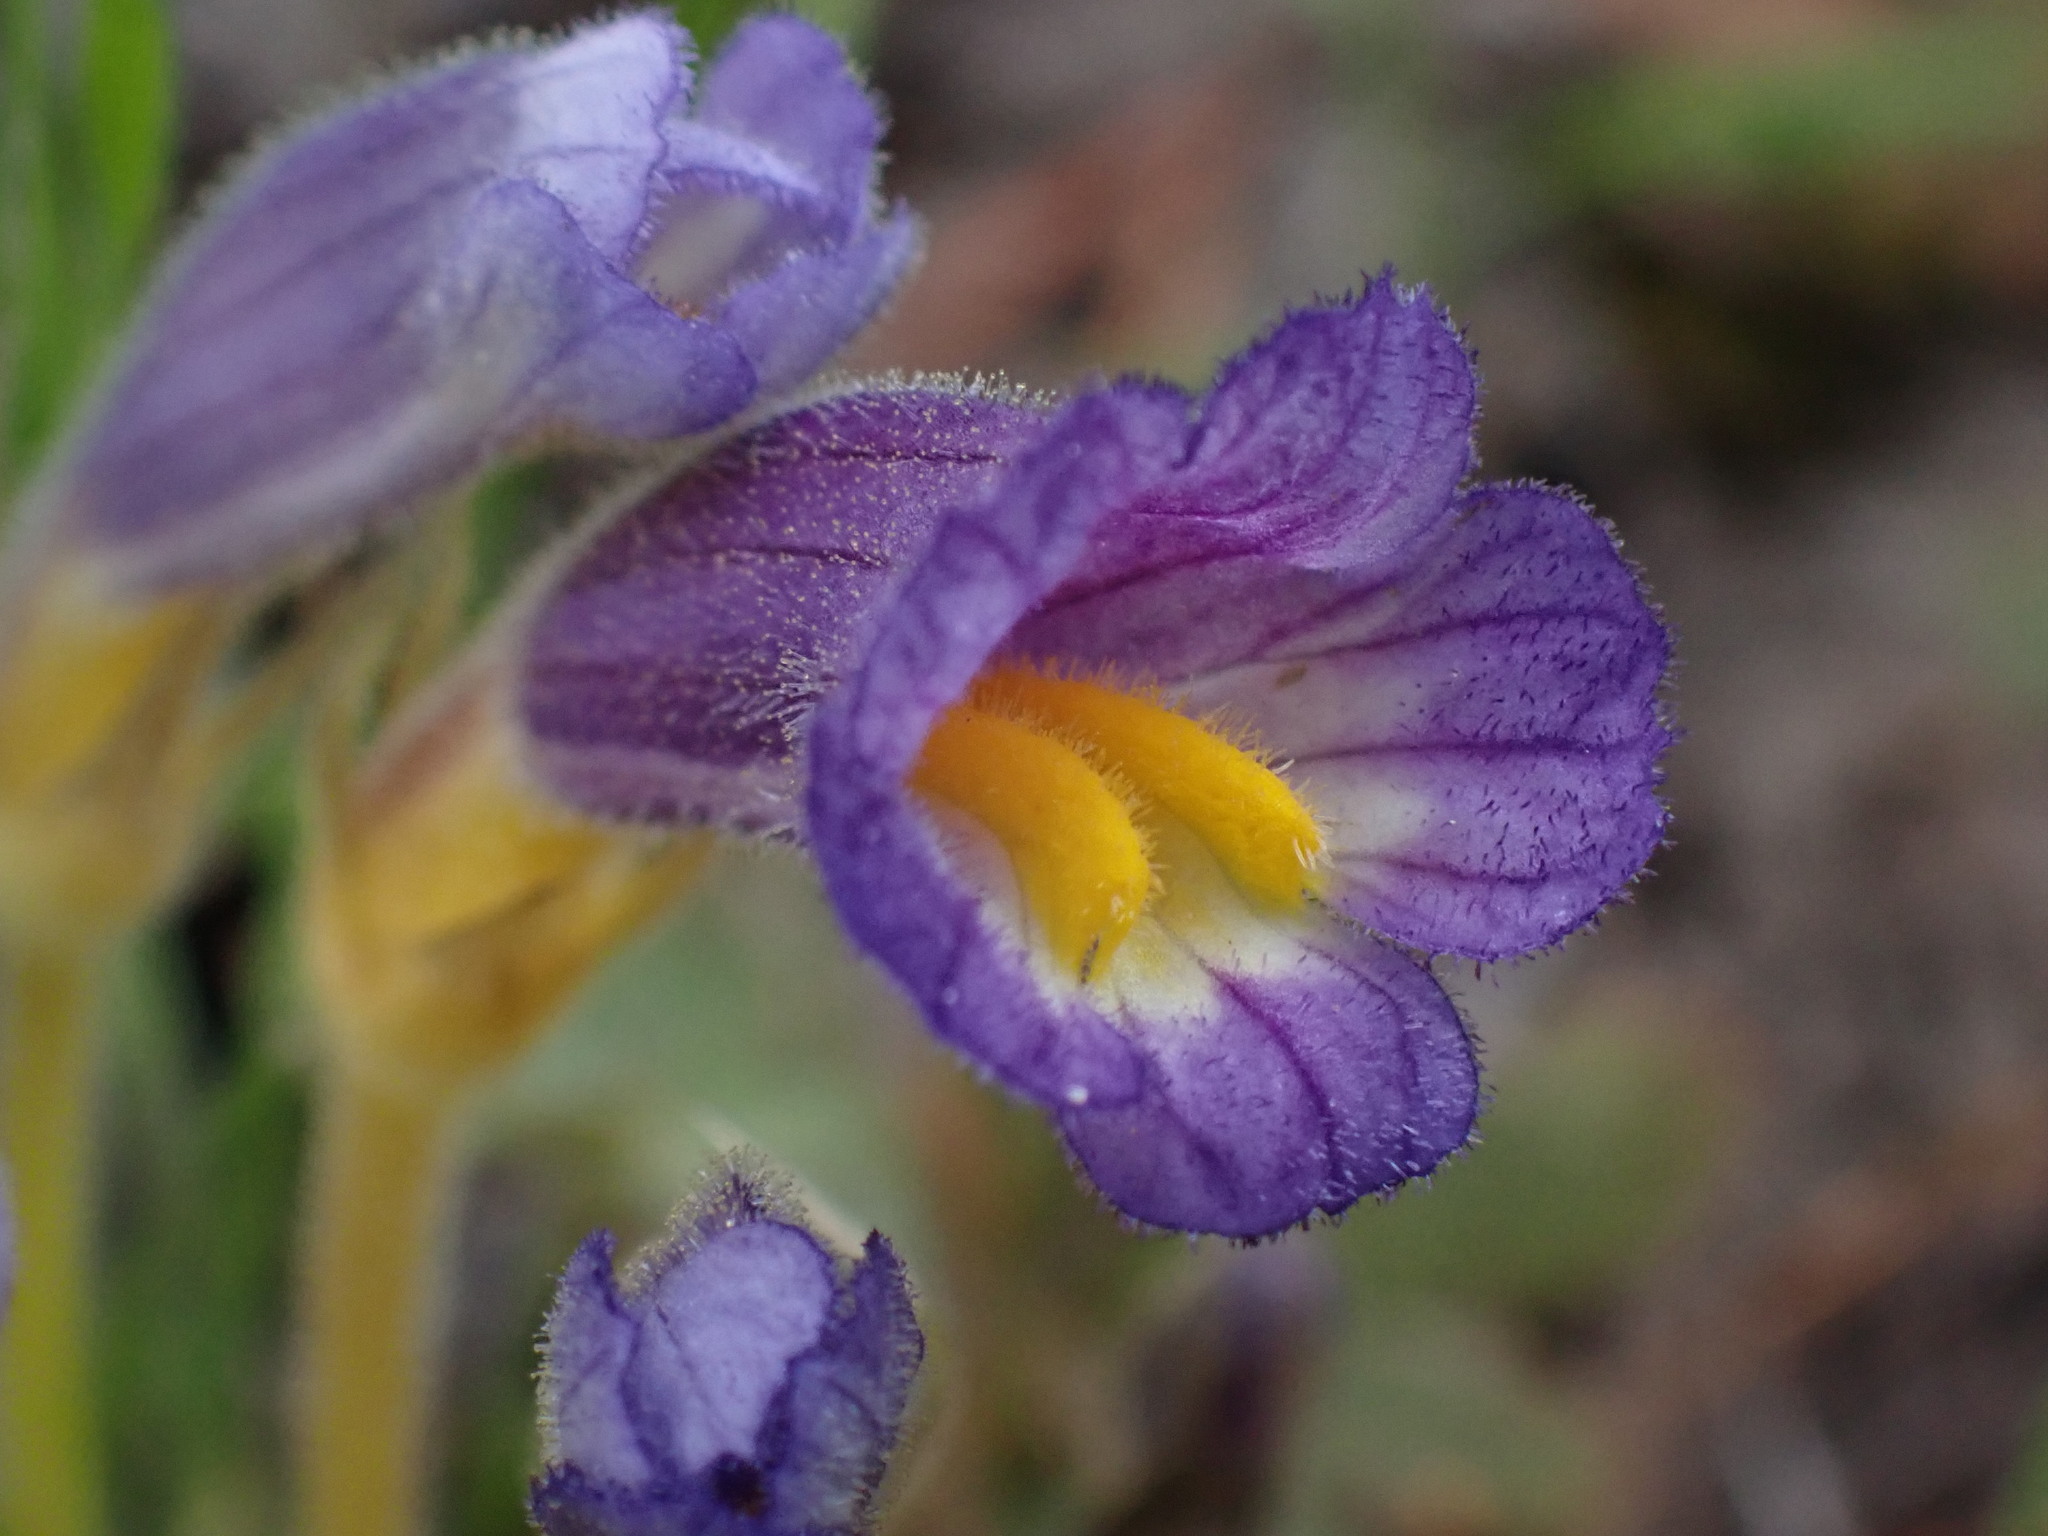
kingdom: Plantae
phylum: Tracheophyta
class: Magnoliopsida
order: Lamiales
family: Orobanchaceae
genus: Aphyllon
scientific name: Aphyllon uniflorum
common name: One-flowered broomrape
